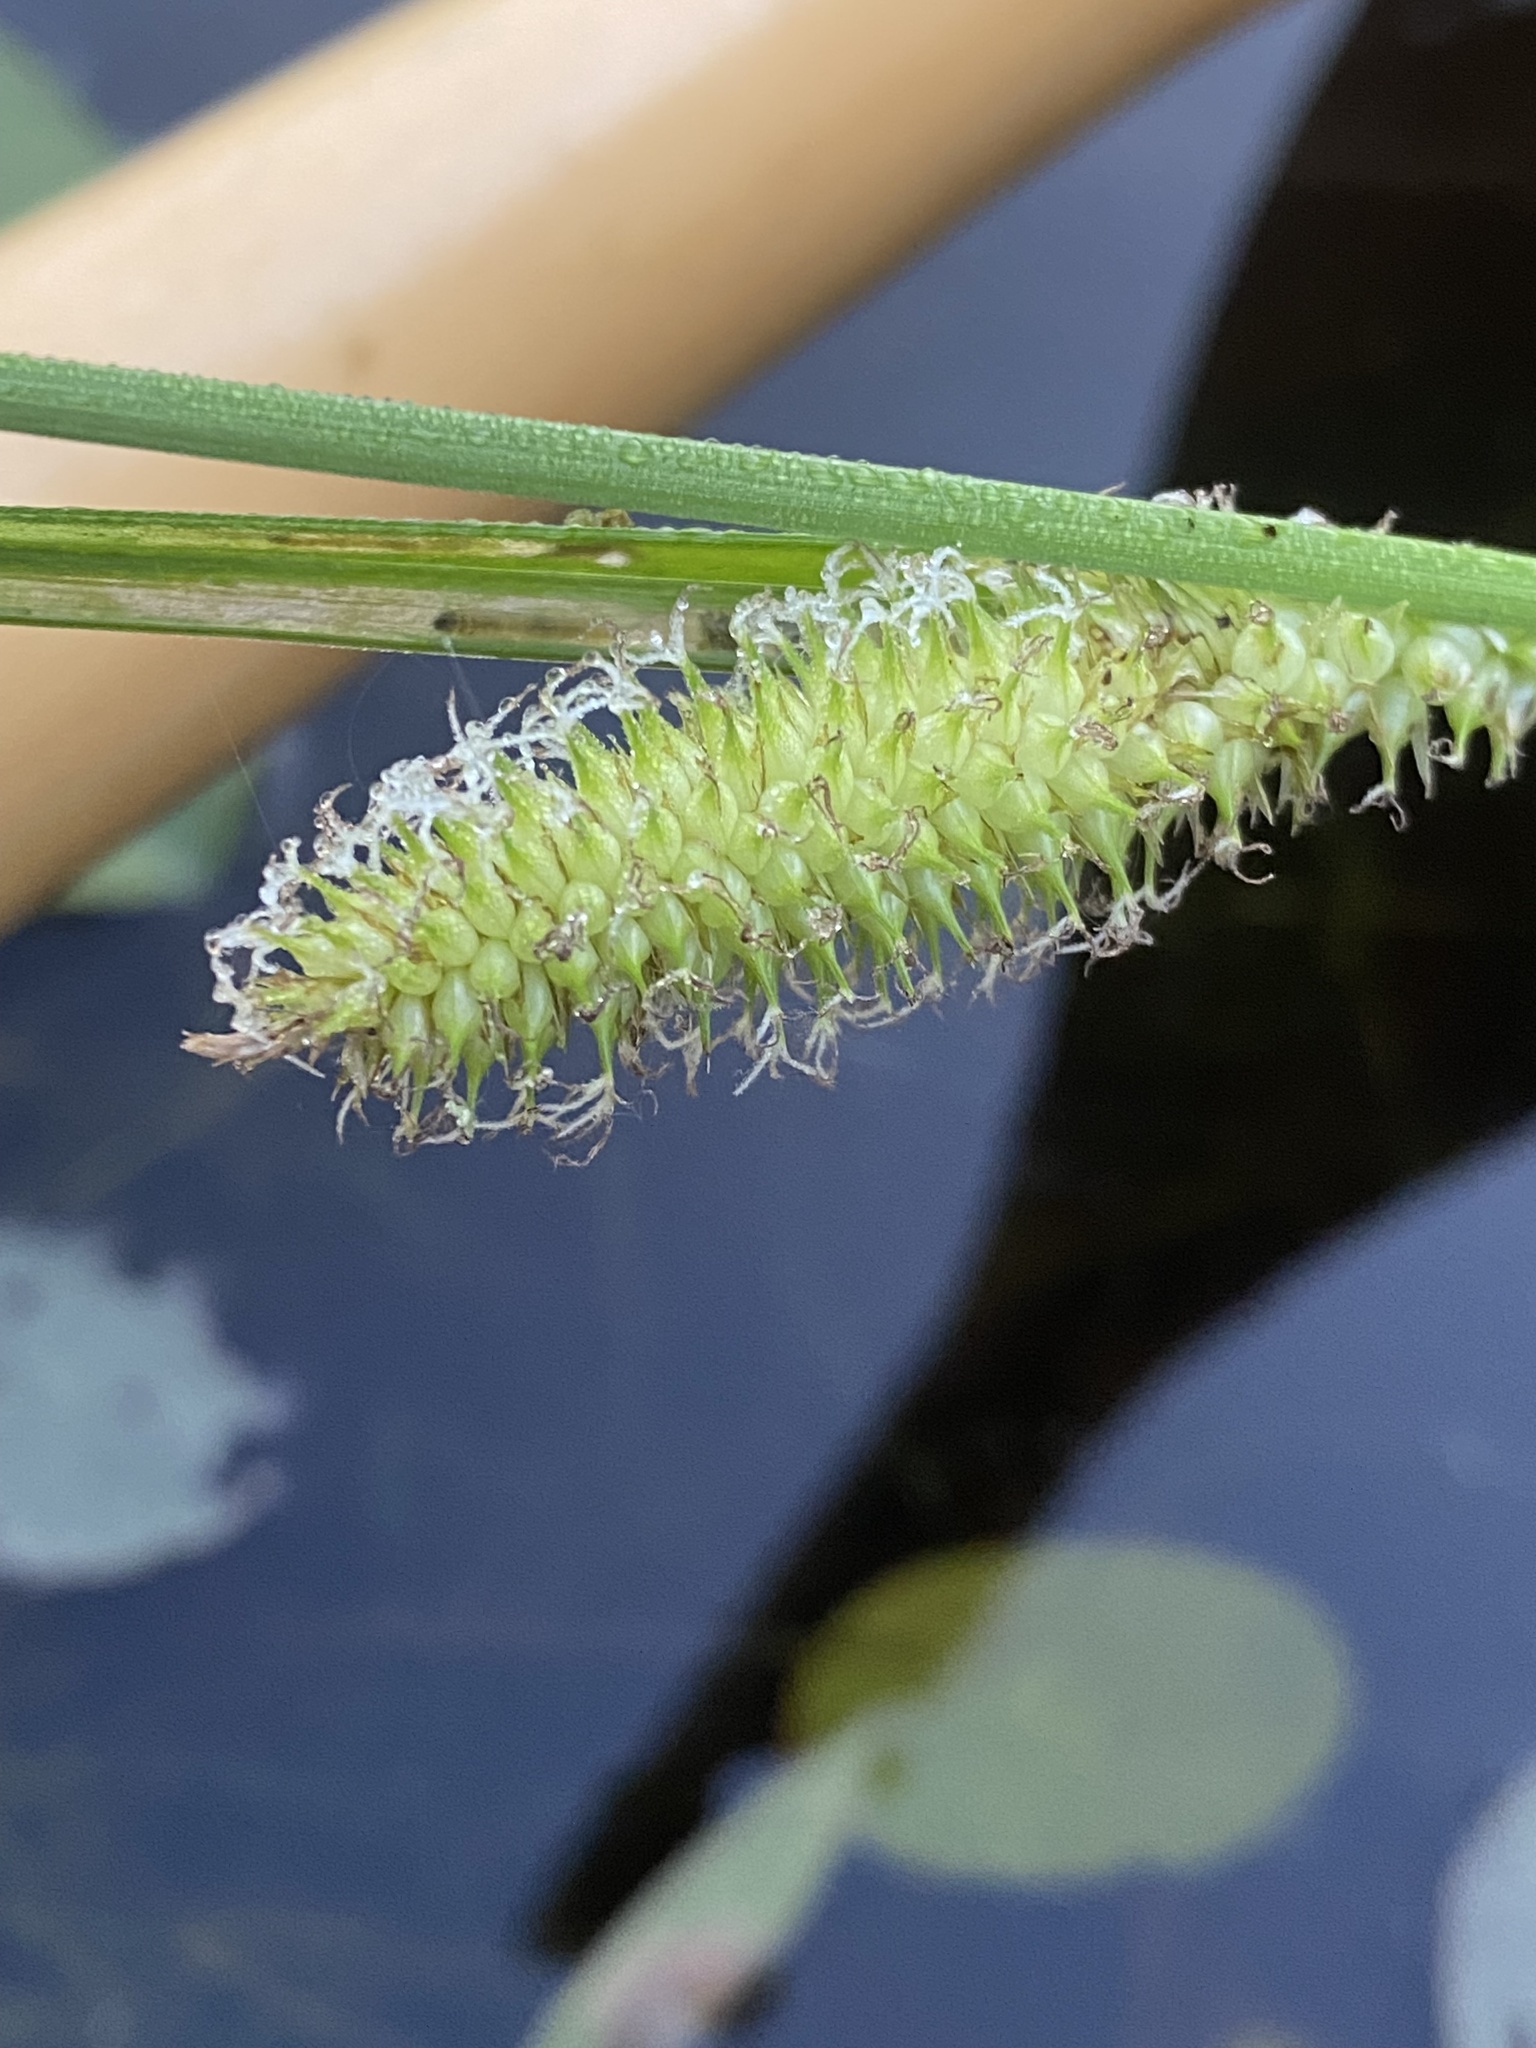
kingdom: Plantae
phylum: Tracheophyta
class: Liliopsida
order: Poales
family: Cyperaceae
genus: Carex
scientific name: Carex utriculata
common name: Beaked sedge
